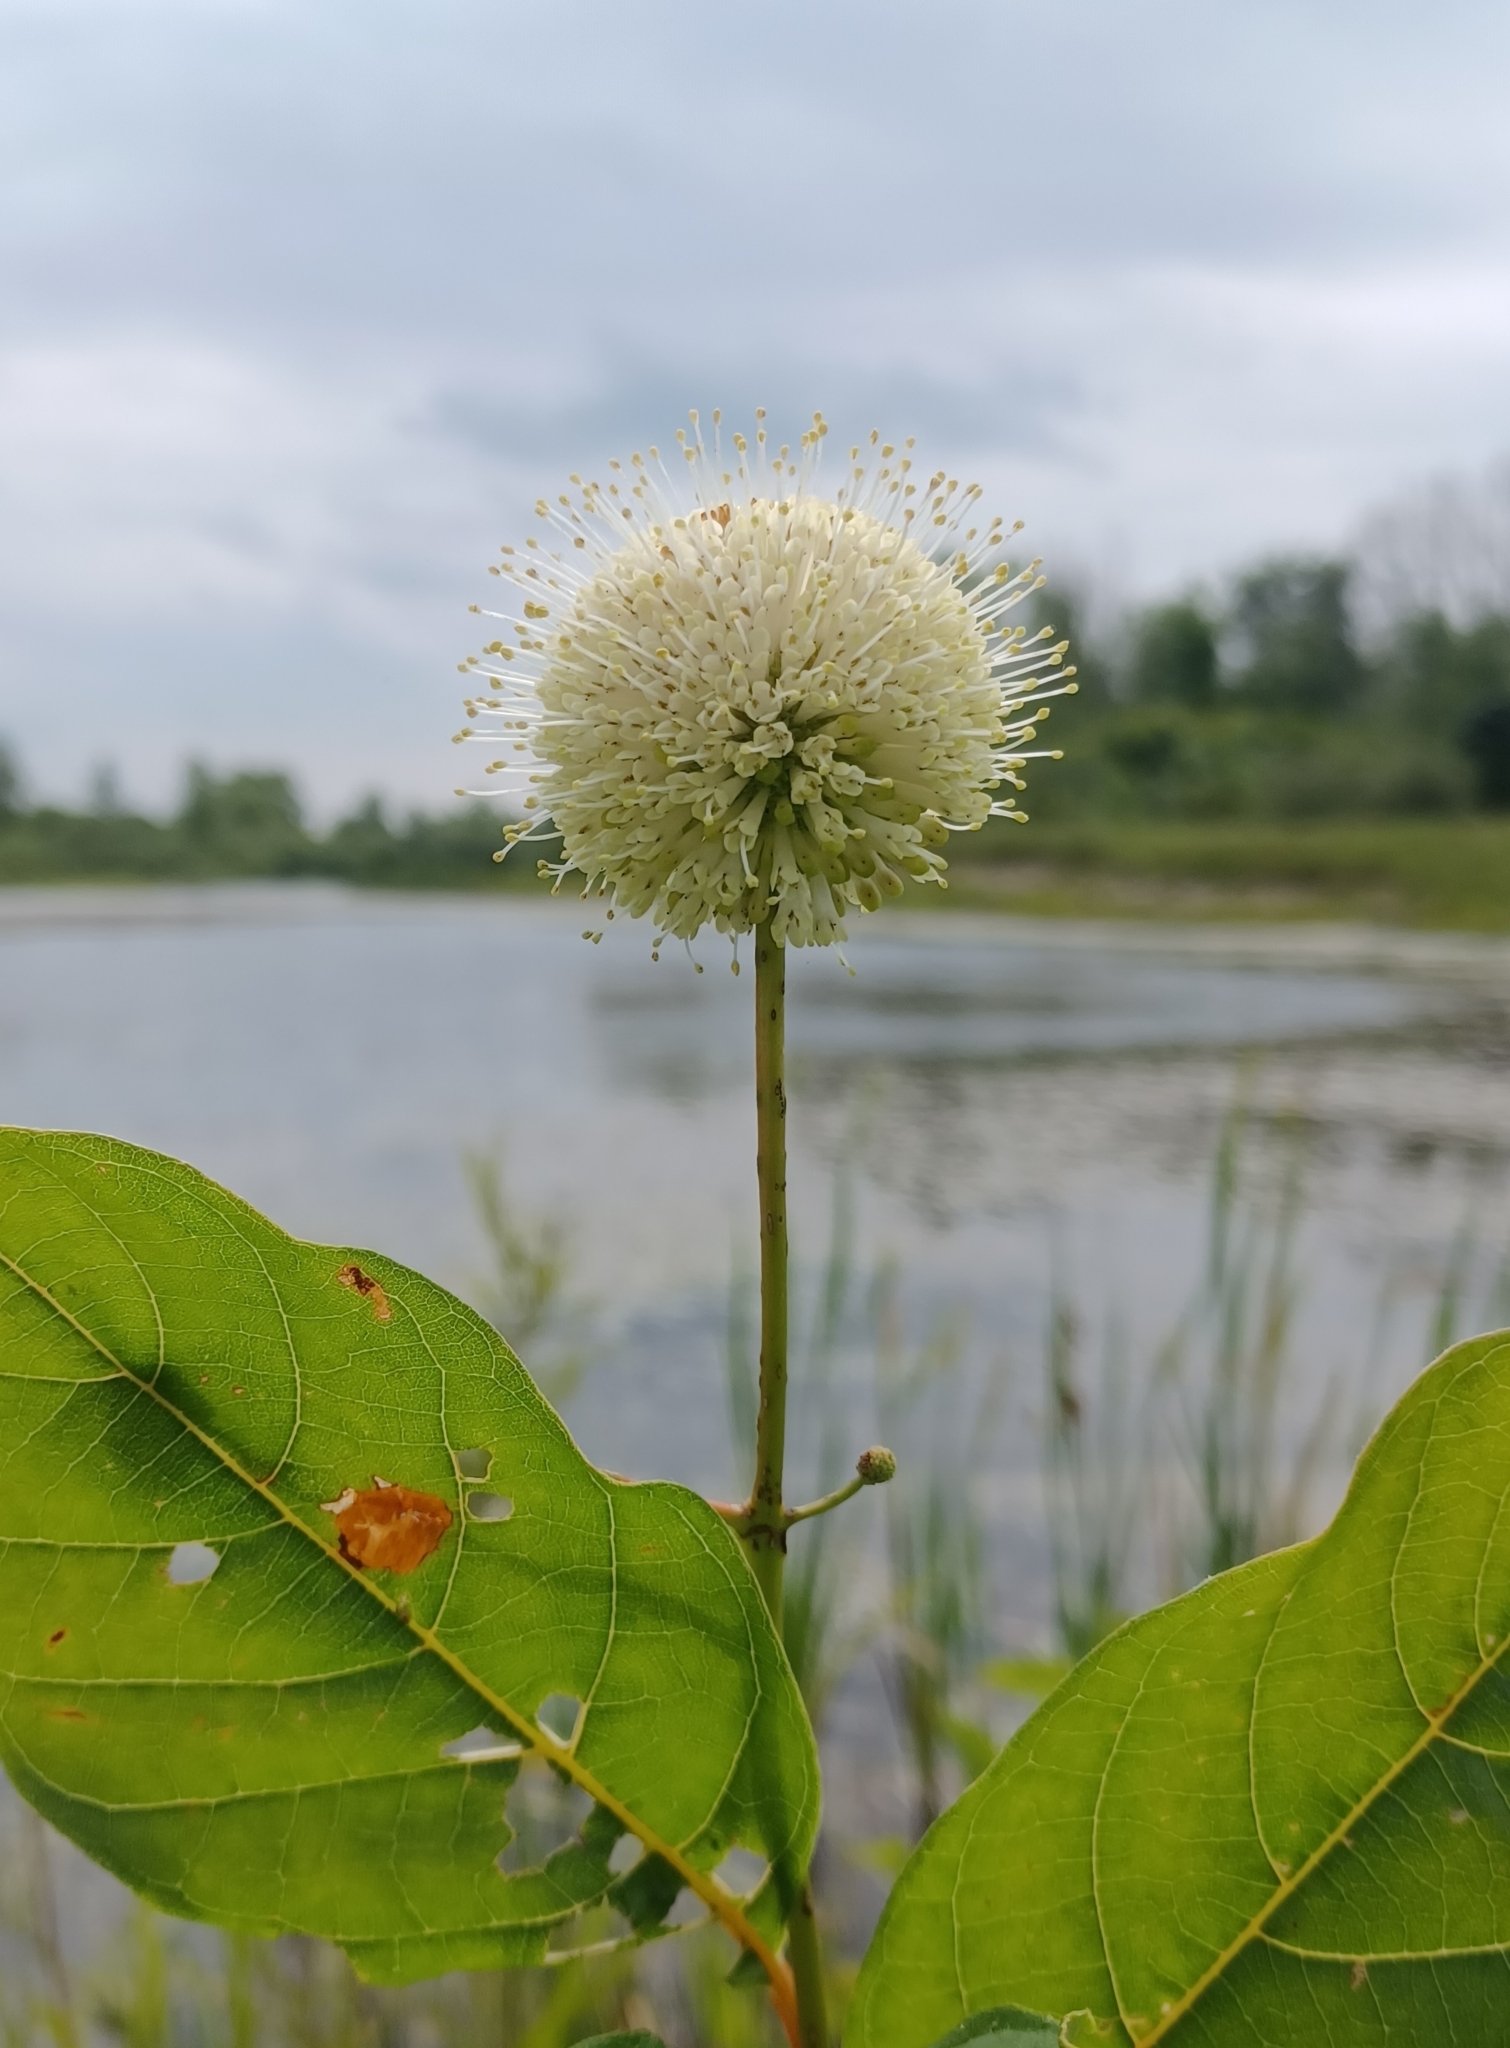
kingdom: Plantae
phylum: Tracheophyta
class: Magnoliopsida
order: Gentianales
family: Rubiaceae
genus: Cephalanthus
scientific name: Cephalanthus occidentalis
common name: Button-willow
